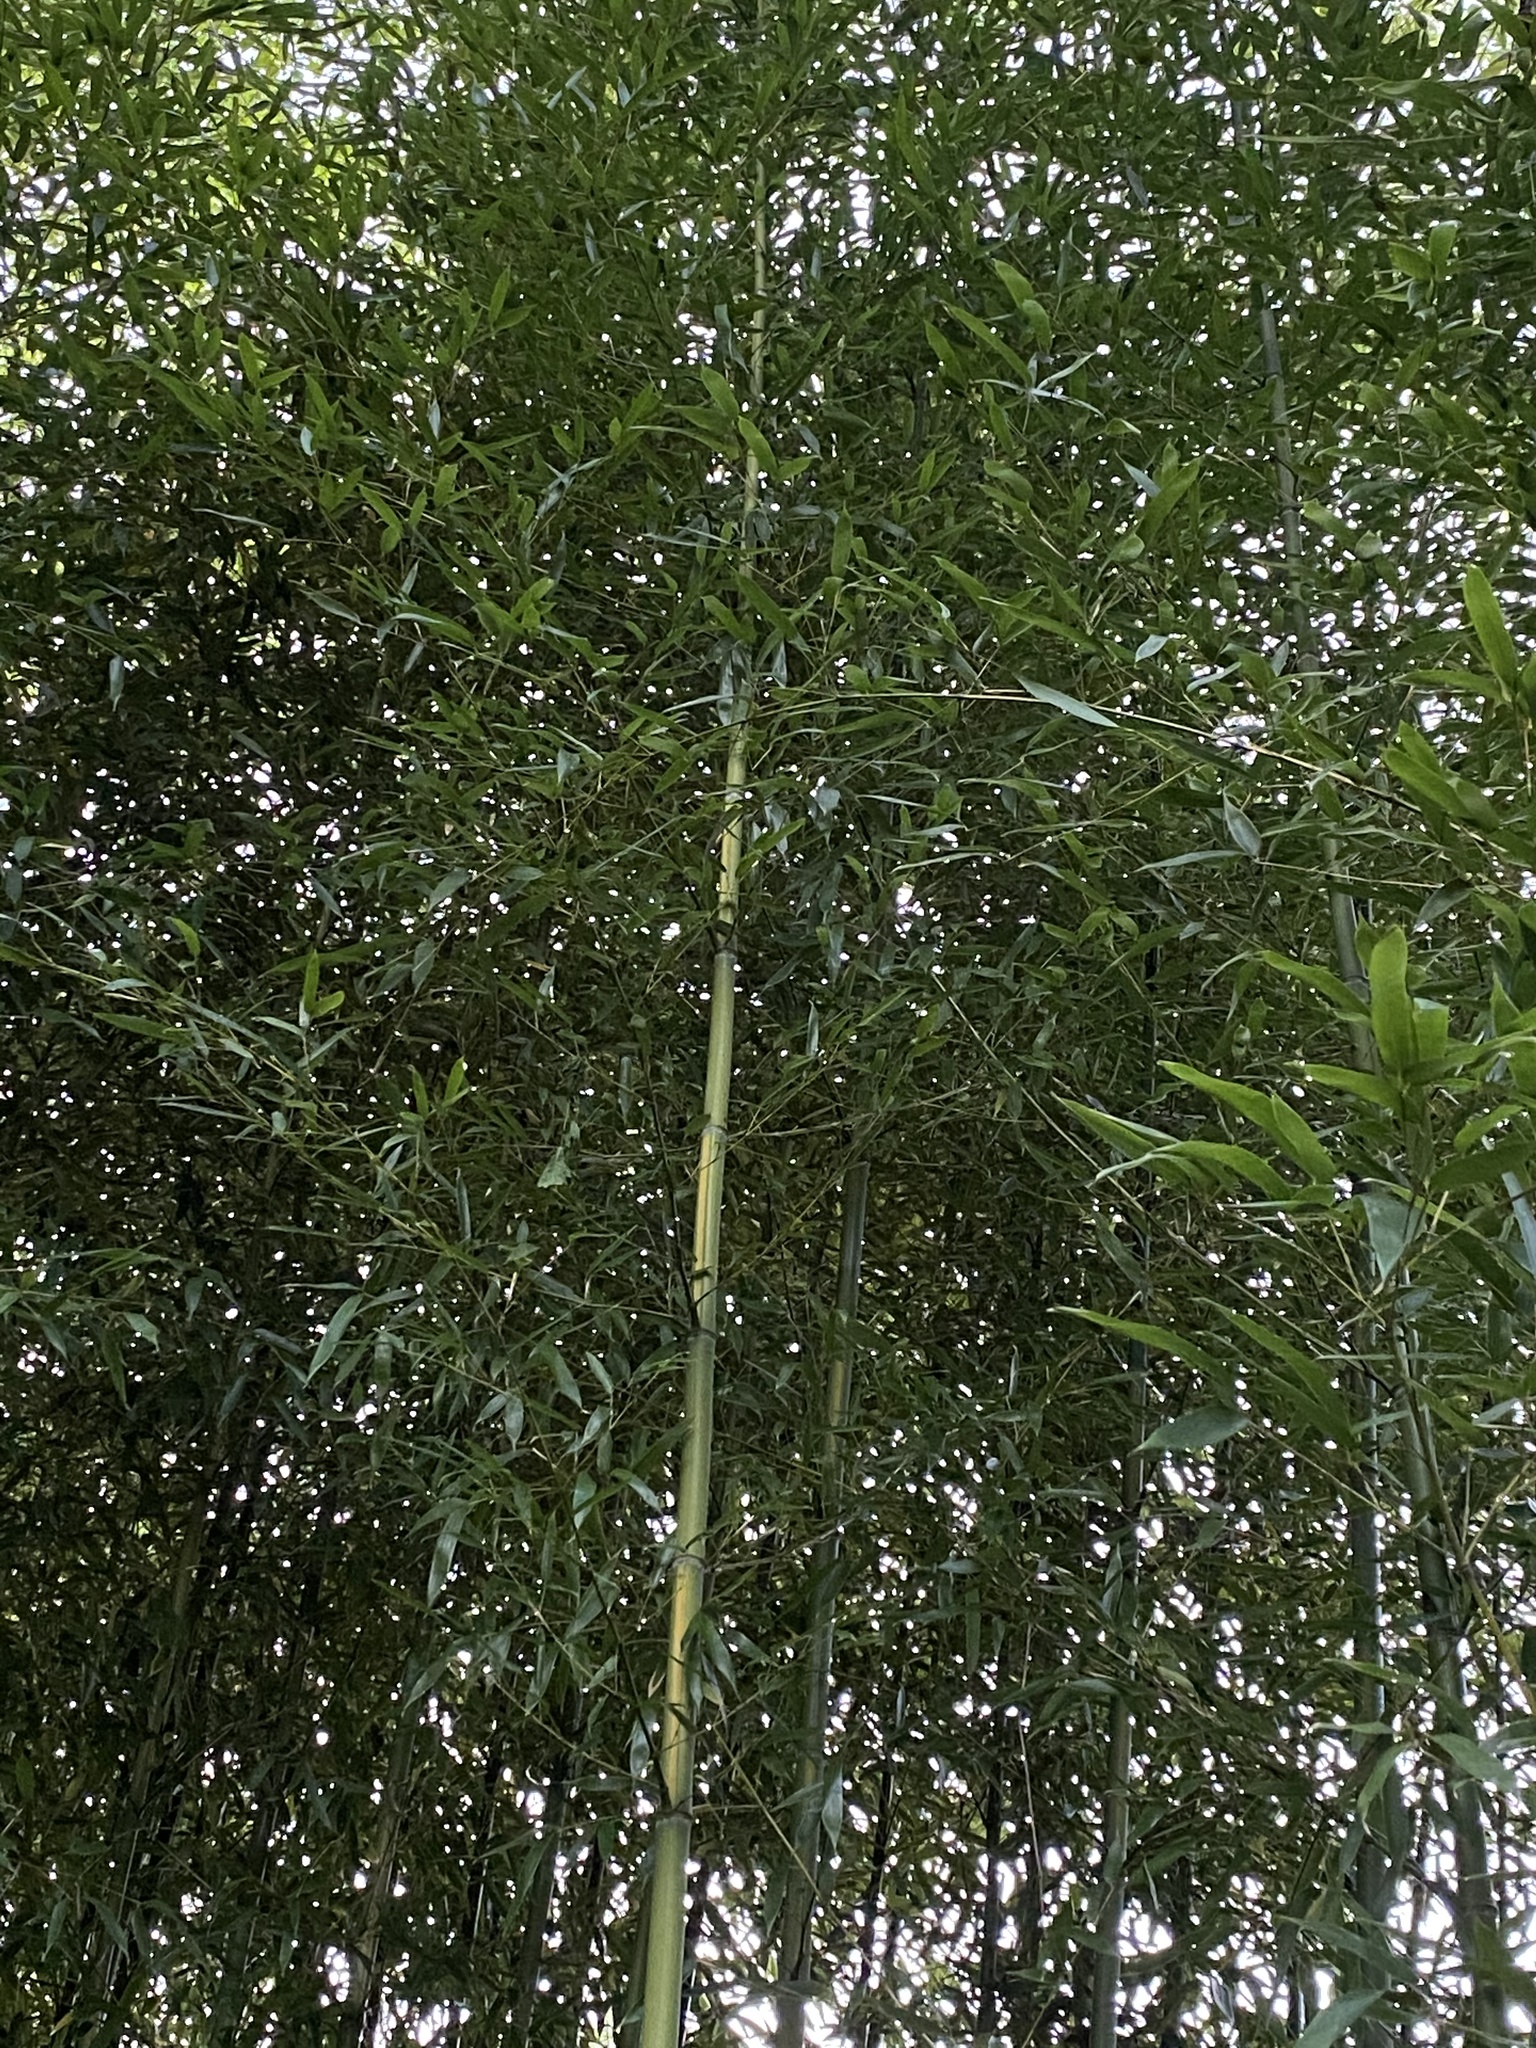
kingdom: Plantae
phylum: Tracheophyta
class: Liliopsida
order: Poales
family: Poaceae
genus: Phyllostachys
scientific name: Phyllostachys aureosulcata
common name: Yellow groove bamboo
